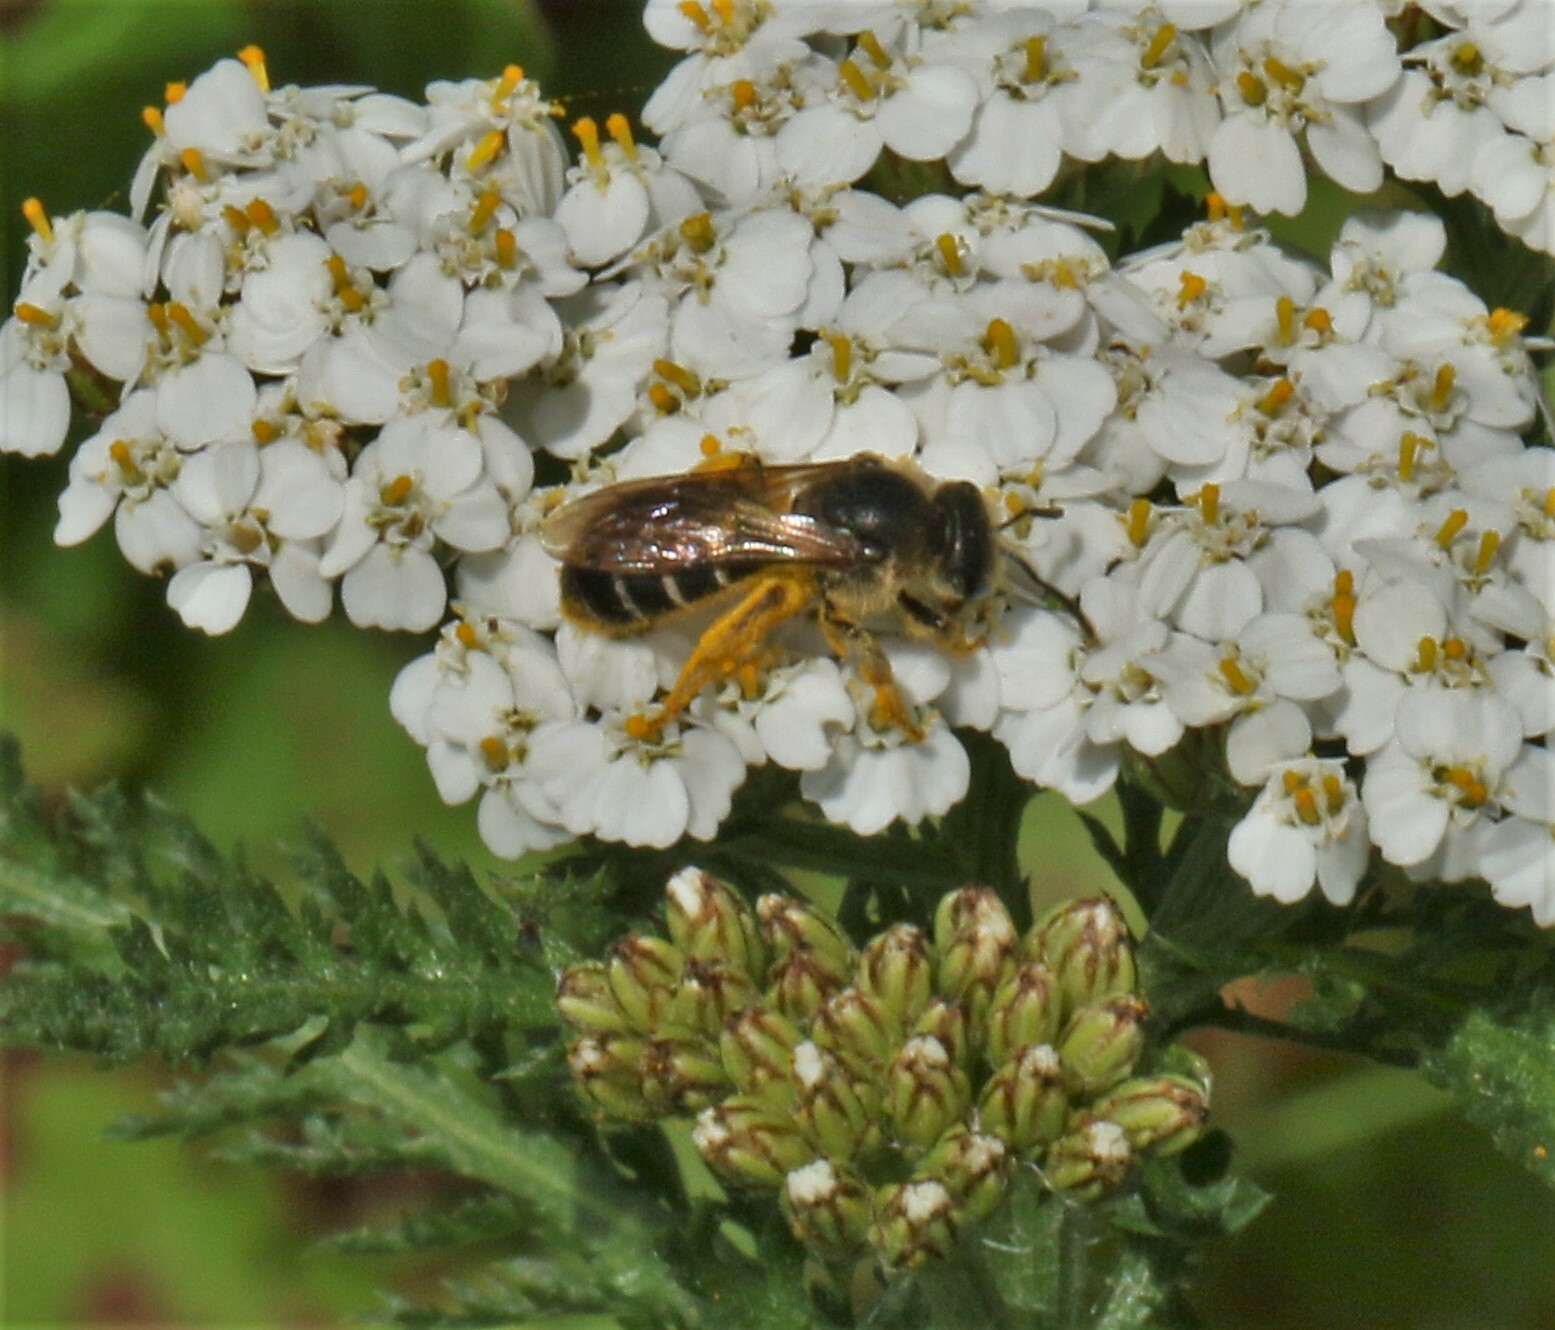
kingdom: Animalia
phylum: Arthropoda
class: Insecta
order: Hymenoptera
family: Halictidae
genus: Halictus
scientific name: Halictus rubicundus
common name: Orange-legged furrow bee
